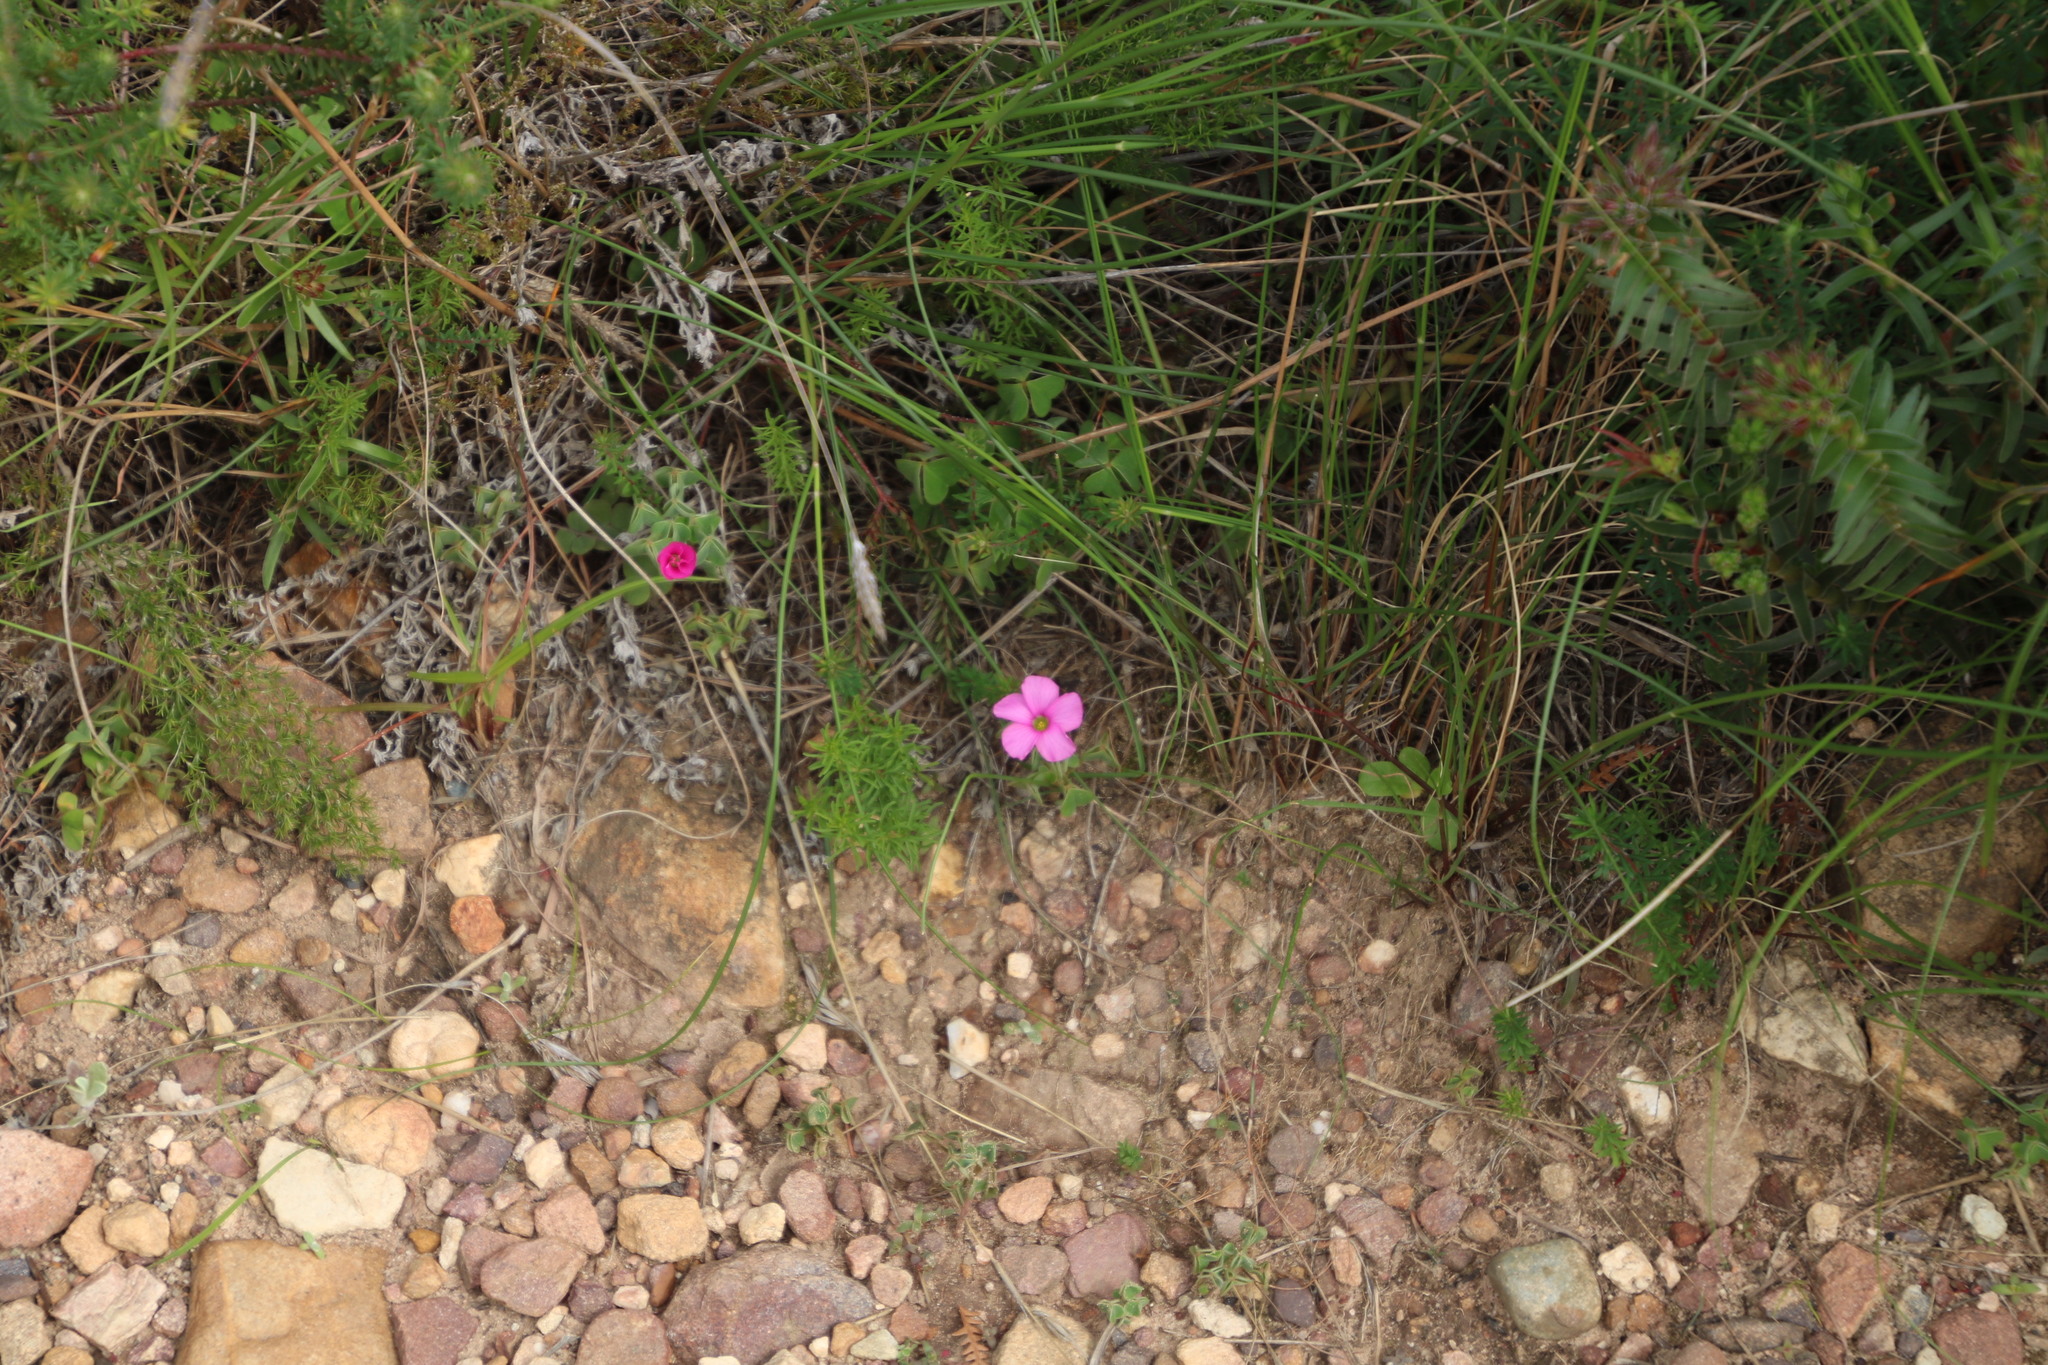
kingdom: Plantae
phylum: Tracheophyta
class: Magnoliopsida
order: Oxalidales
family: Oxalidaceae
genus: Oxalis
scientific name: Oxalis lanata
